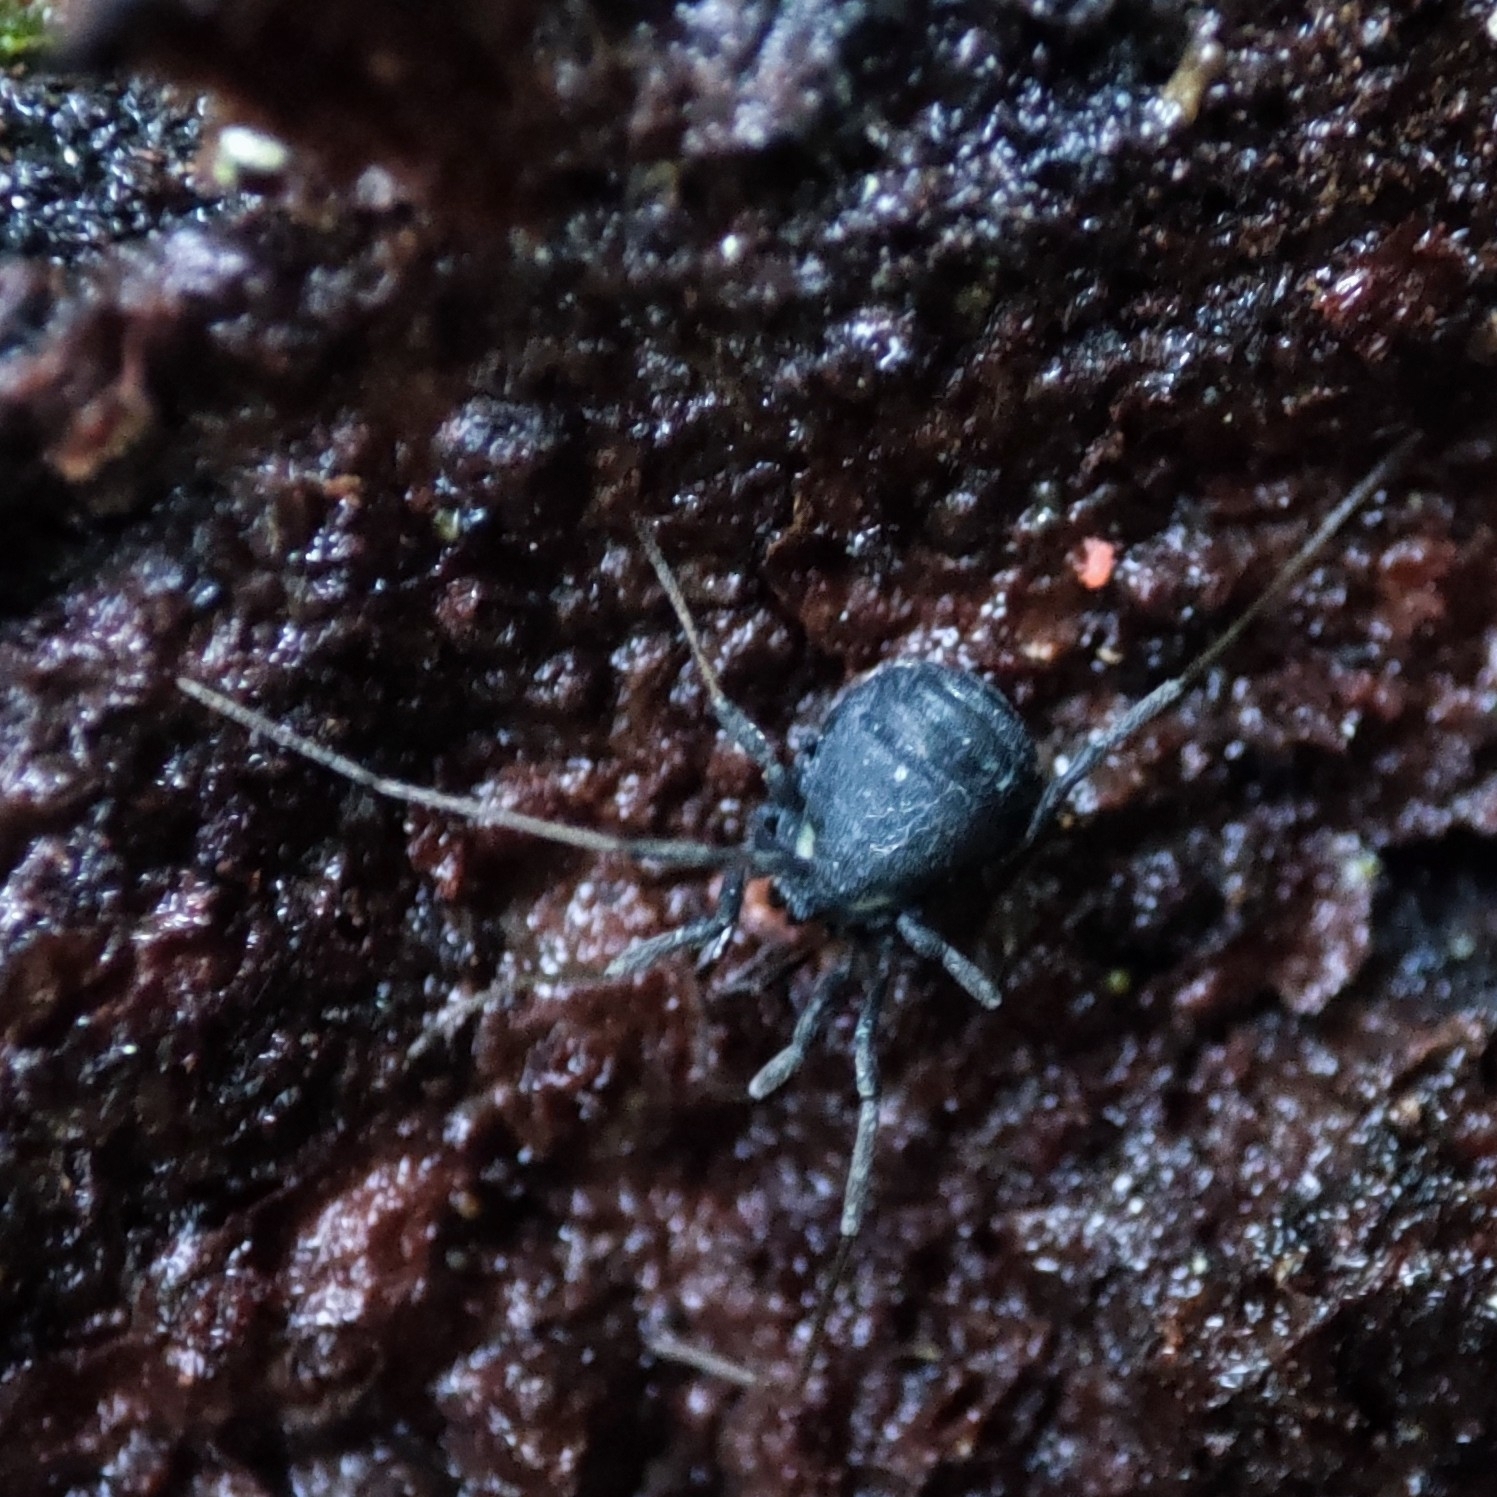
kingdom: Animalia
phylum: Arthropoda
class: Arachnida
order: Opiliones
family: Nemastomatidae
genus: Nemastoma
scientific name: Nemastoma lugubre
